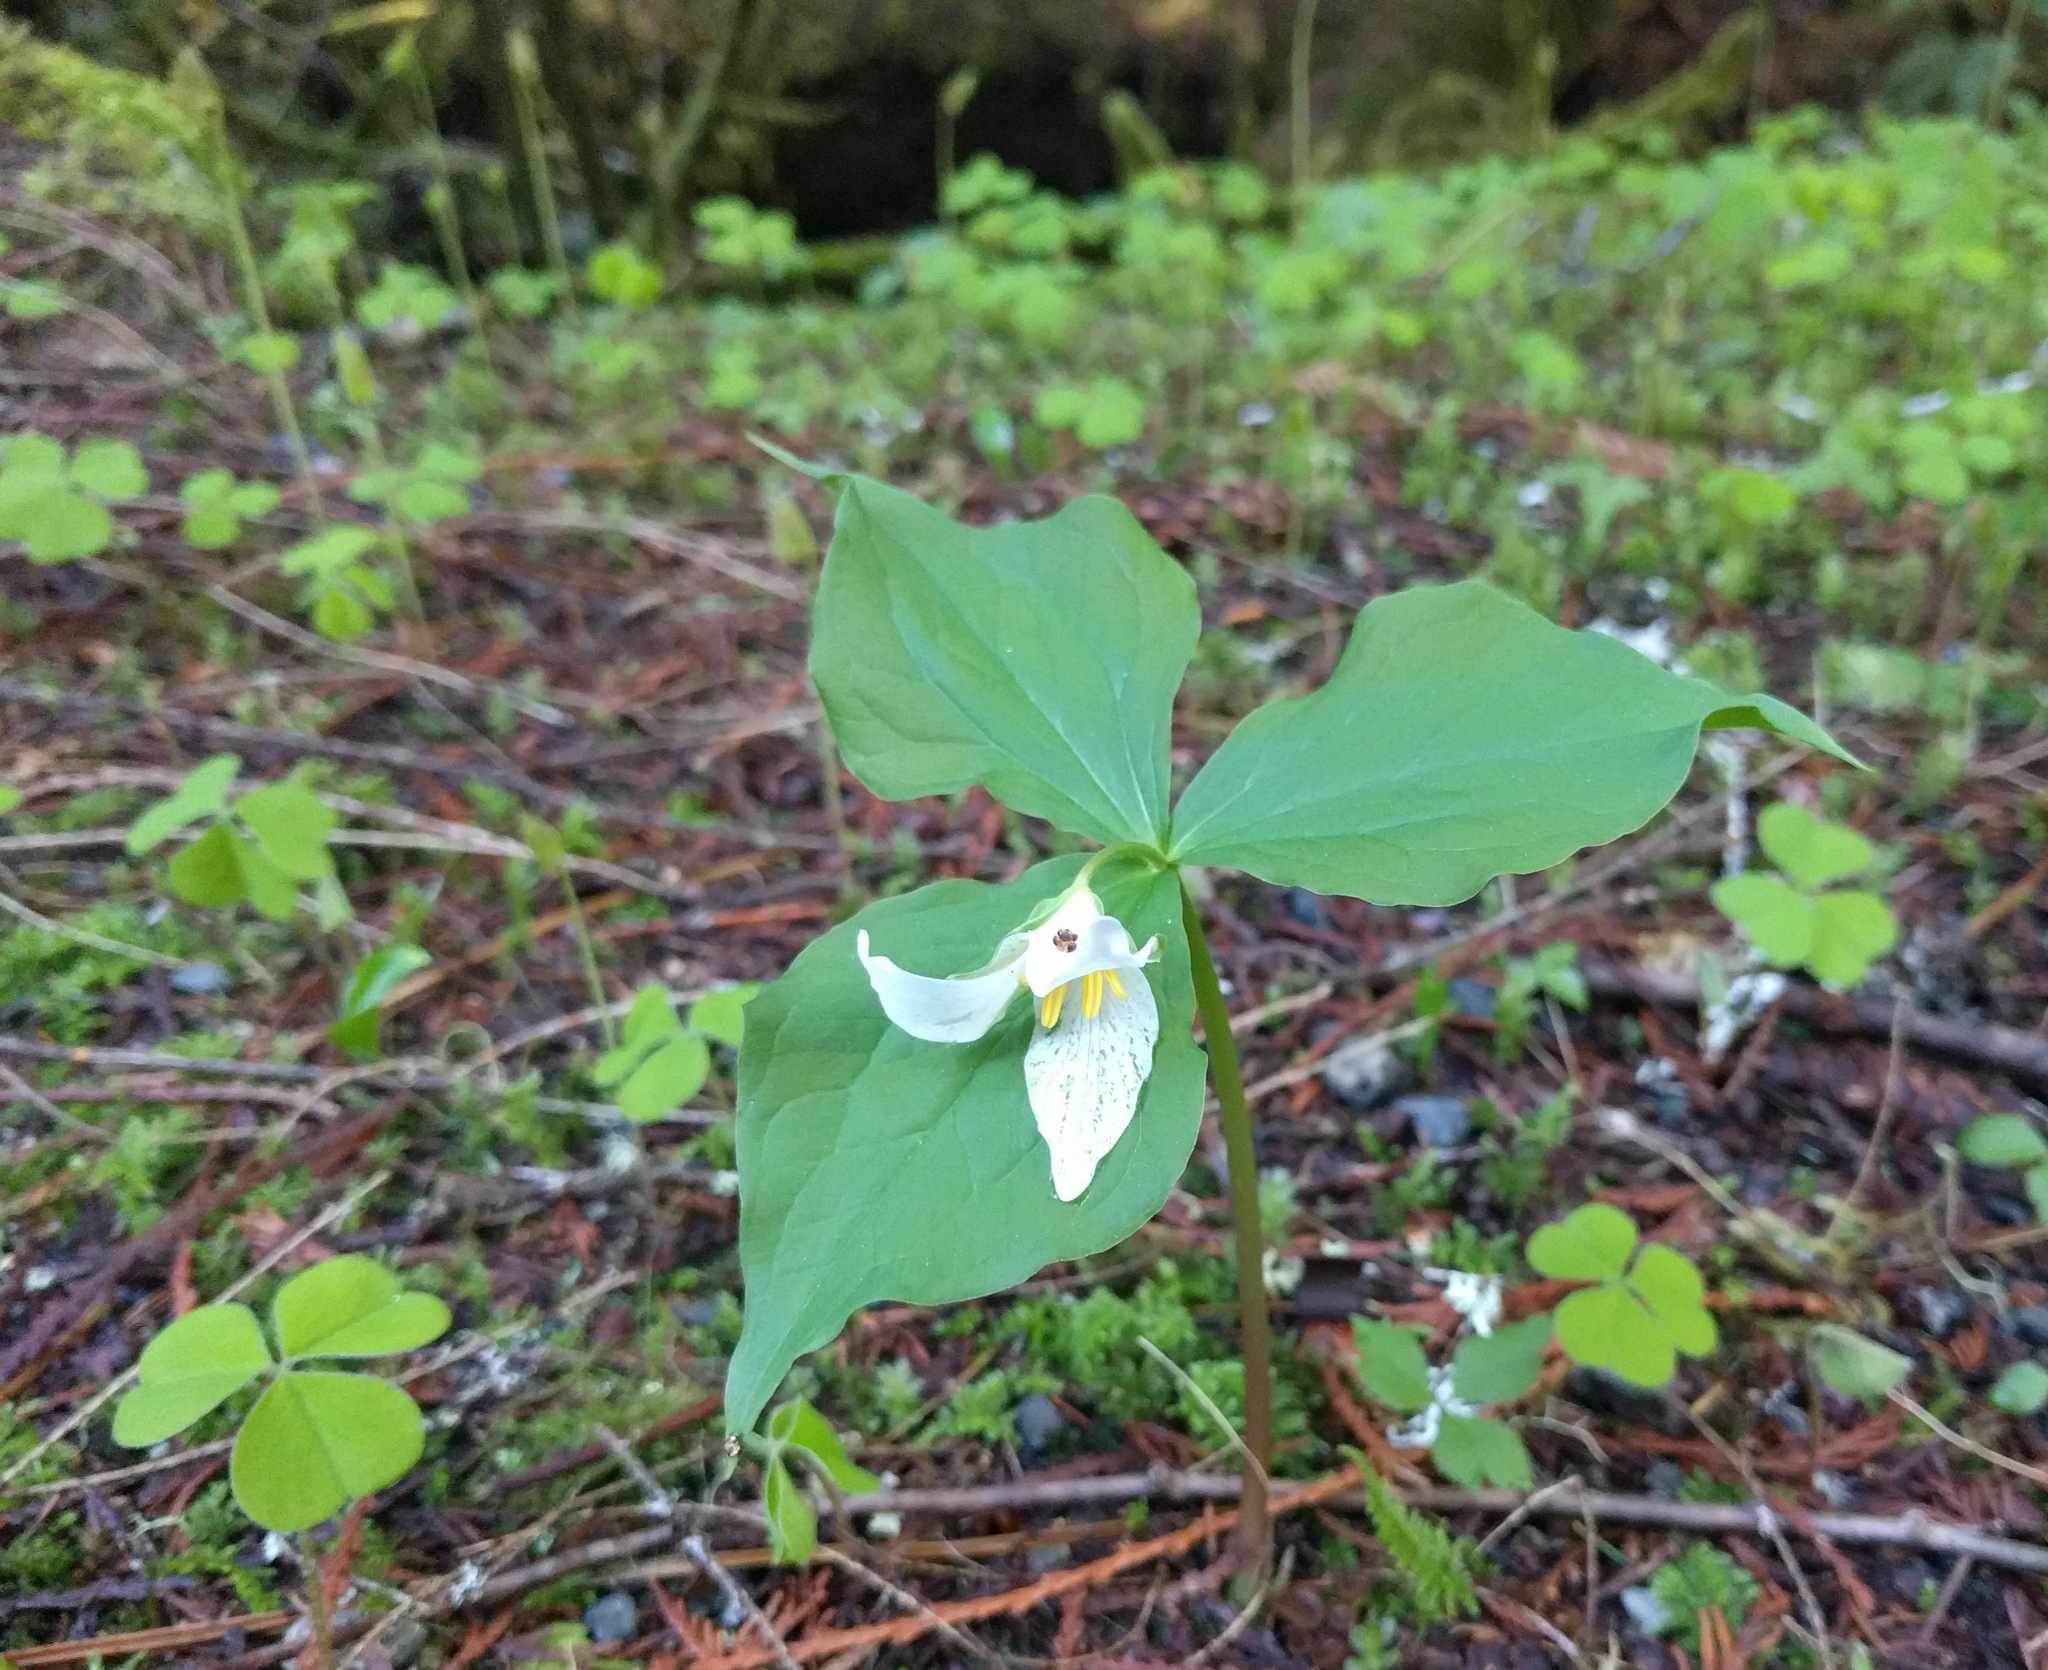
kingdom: Plantae
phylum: Tracheophyta
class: Liliopsida
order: Liliales
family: Melanthiaceae
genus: Trillium
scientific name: Trillium ovatum
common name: Pacific trillium
